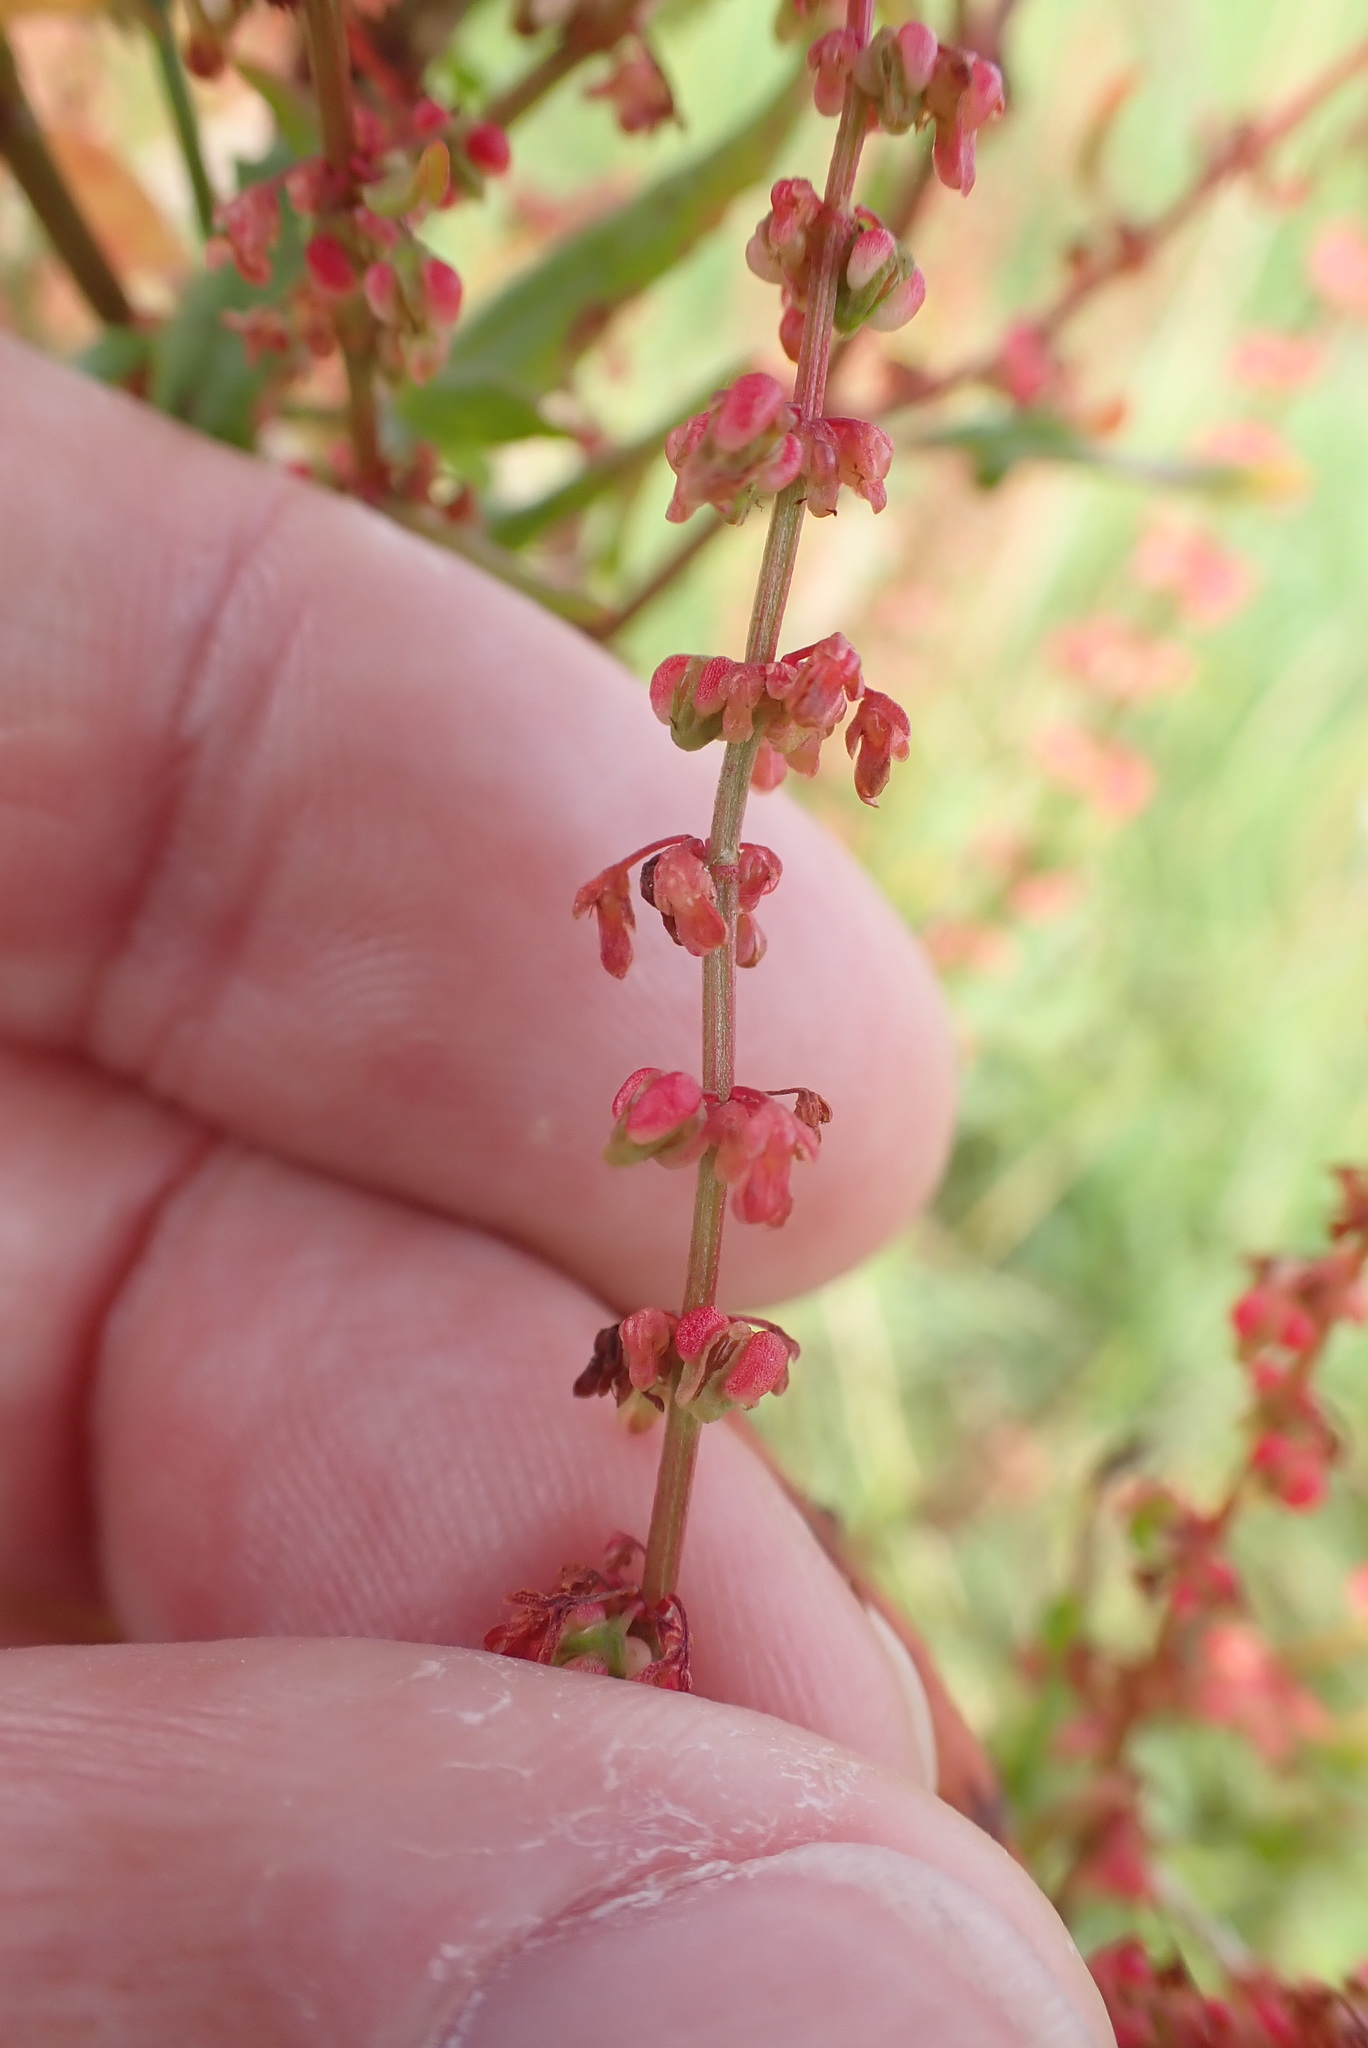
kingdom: Plantae
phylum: Tracheophyta
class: Magnoliopsida
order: Caryophyllales
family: Polygonaceae
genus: Rumex
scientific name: Rumex sanguineus
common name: Wood dock
